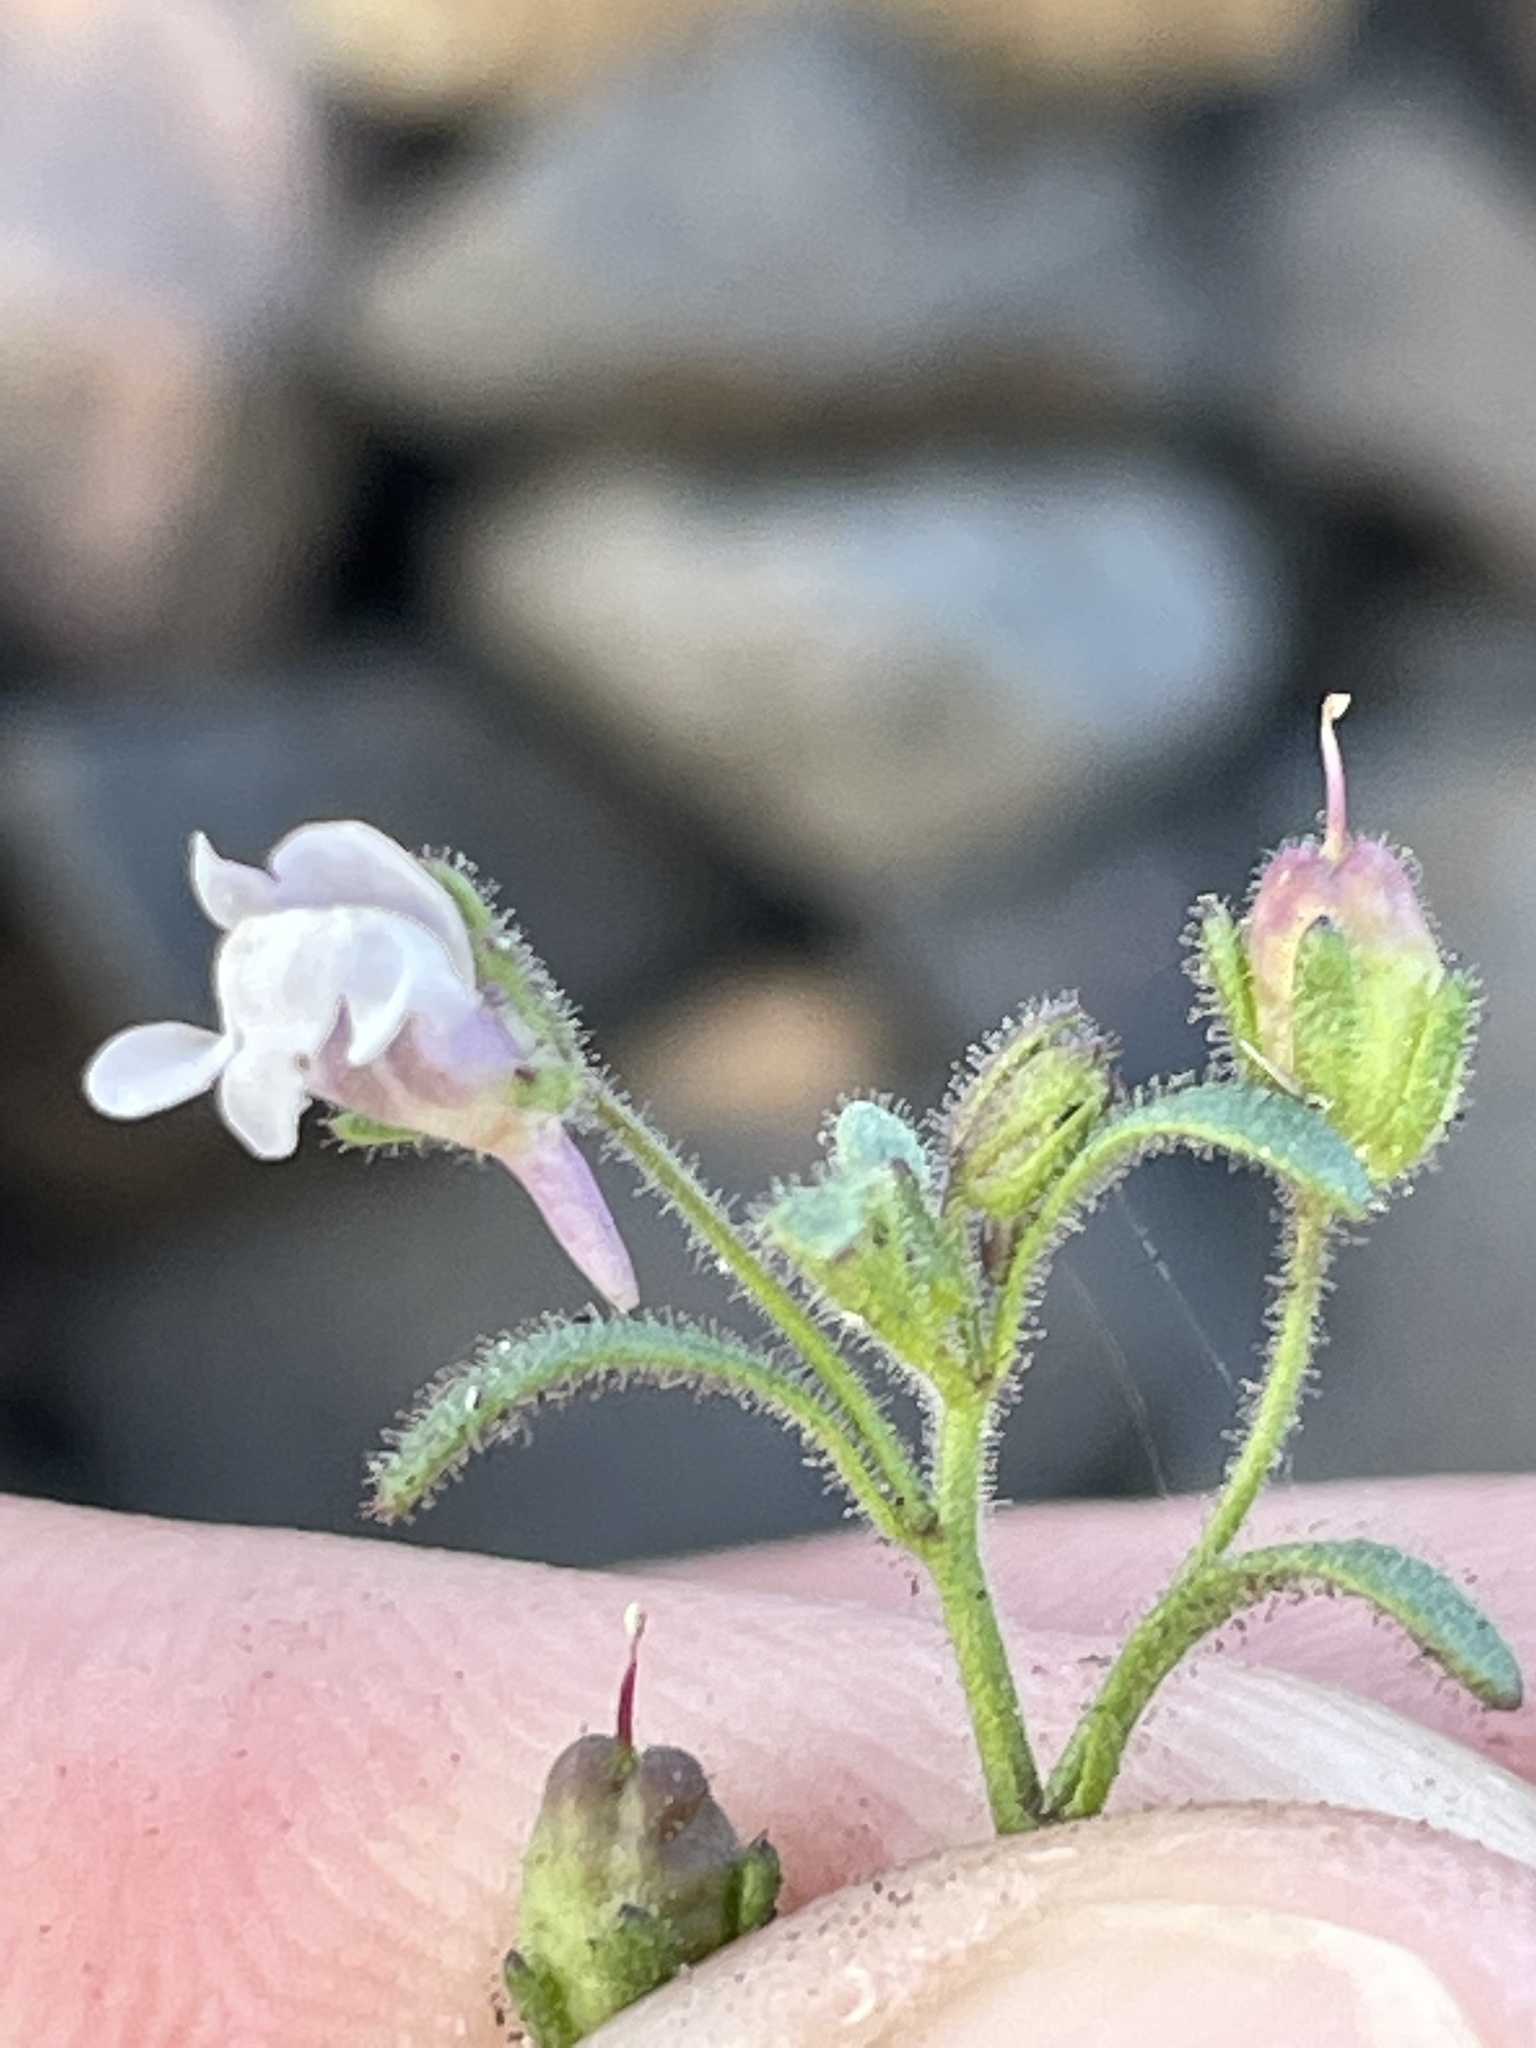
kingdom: Plantae
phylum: Tracheophyta
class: Magnoliopsida
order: Lamiales
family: Plantaginaceae
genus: Chaenorhinum
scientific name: Chaenorhinum minus
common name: Dwarf snapdragon
